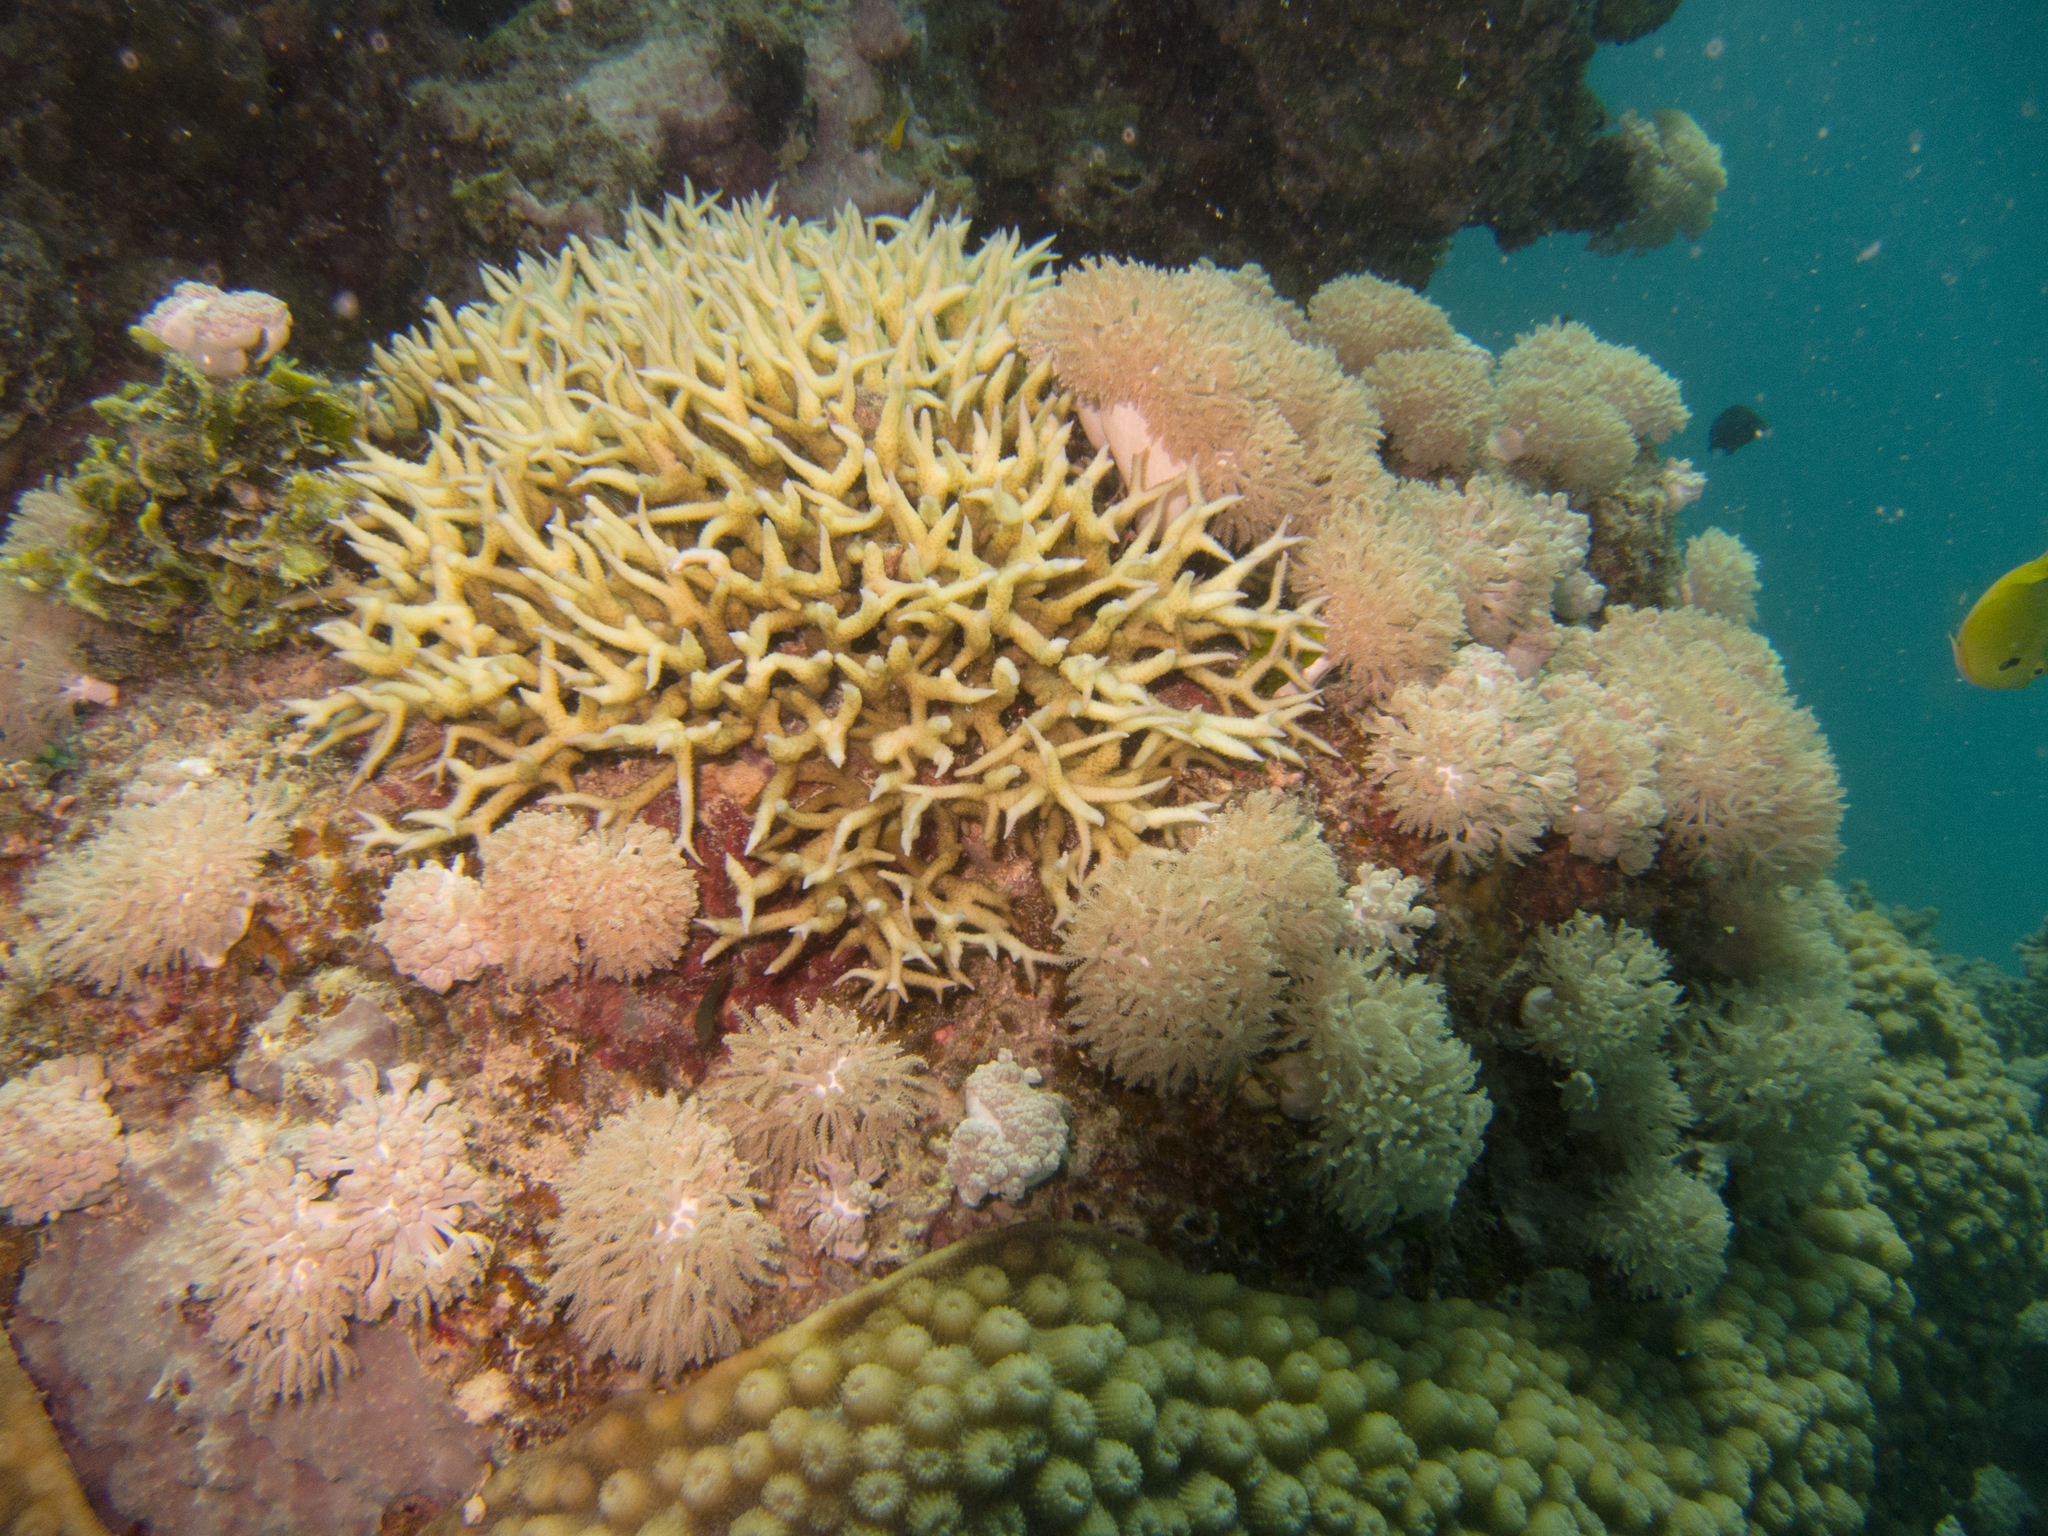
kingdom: Animalia
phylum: Cnidaria
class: Anthozoa
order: Scleractinia
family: Pocilloporidae
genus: Seriatopora
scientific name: Seriatopora hystrix
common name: Bush coral
